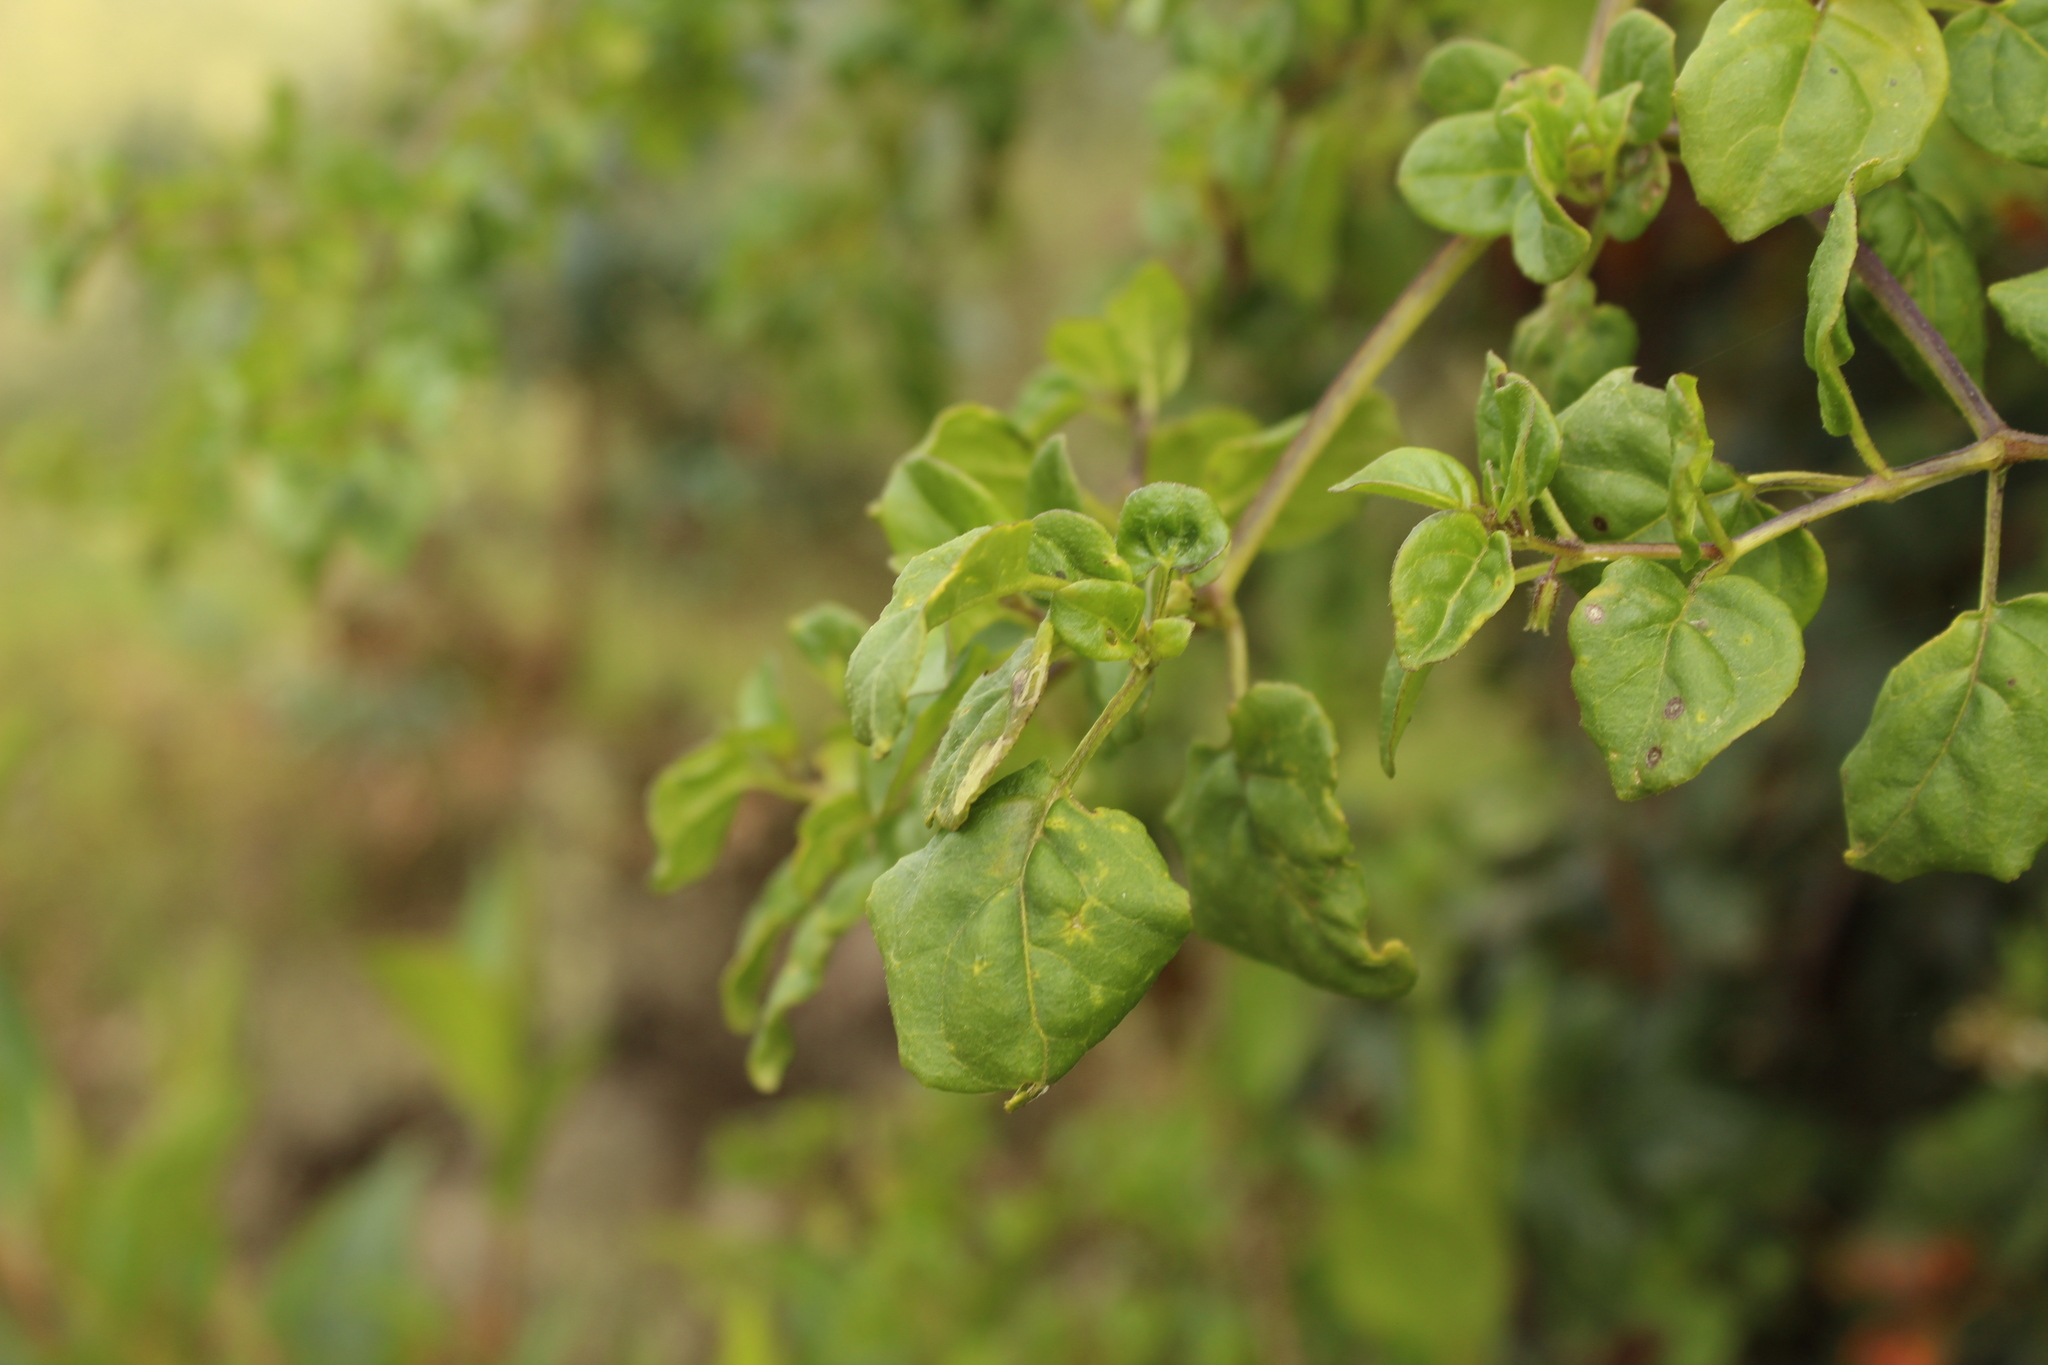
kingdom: Plantae
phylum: Tracheophyta
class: Magnoliopsida
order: Solanales
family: Solanaceae
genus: Salpichroa
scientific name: Salpichroa tristis
